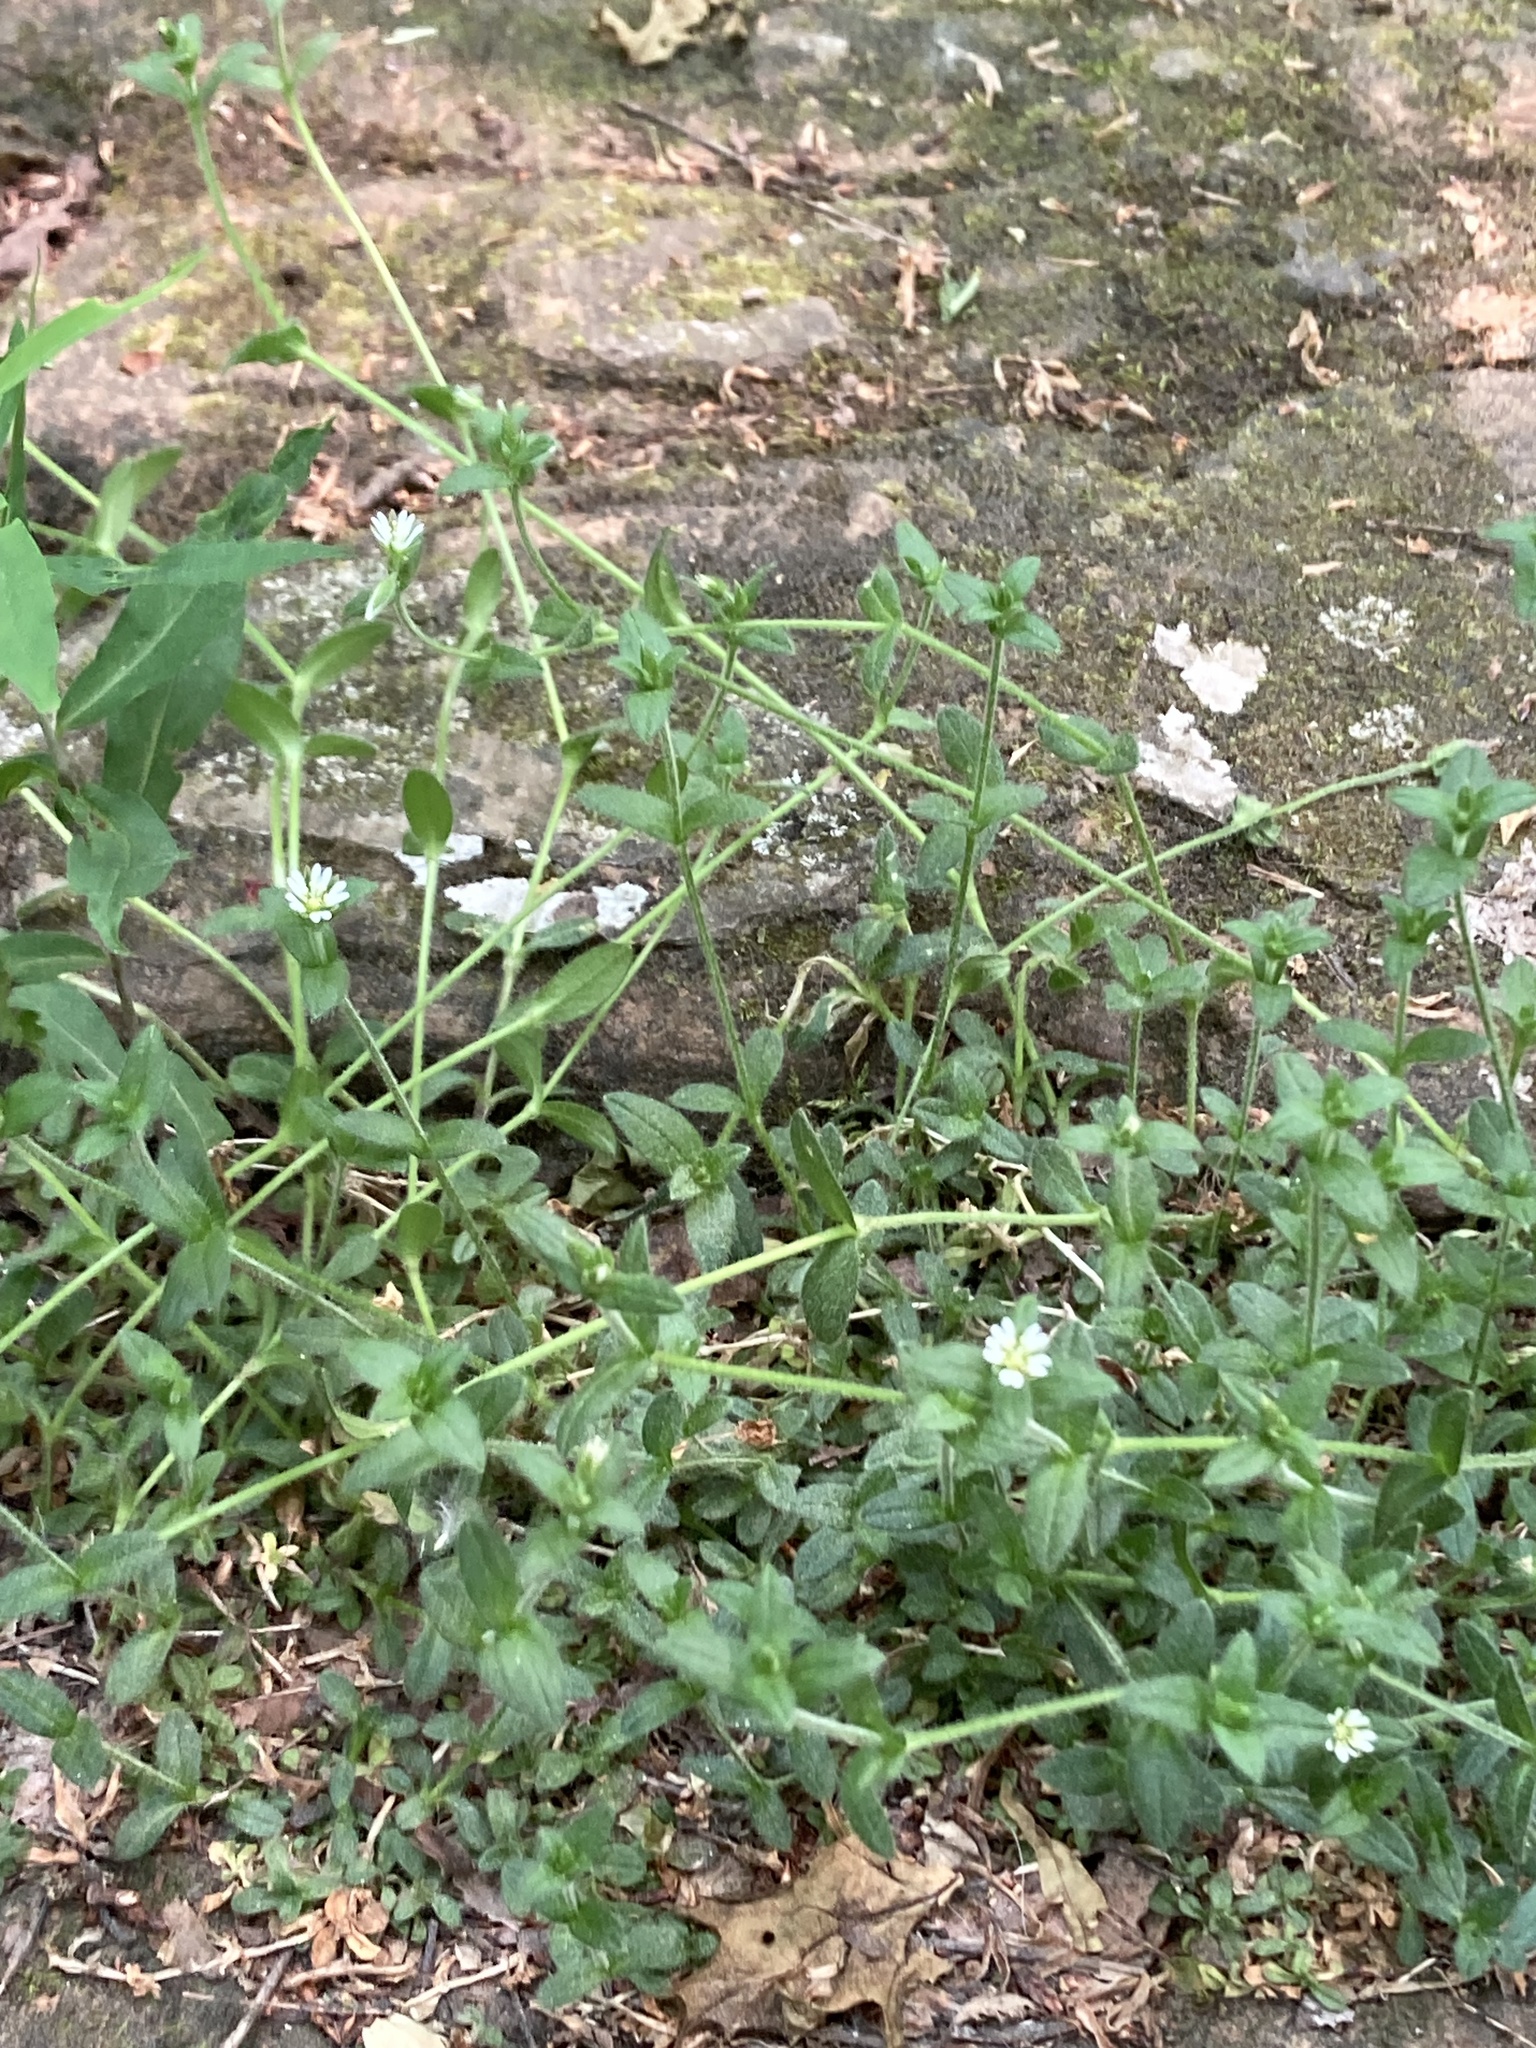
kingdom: Plantae
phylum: Tracheophyta
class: Magnoliopsida
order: Caryophyllales
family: Caryophyllaceae
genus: Cerastium
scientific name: Cerastium fontanum
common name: Common mouse-ear
